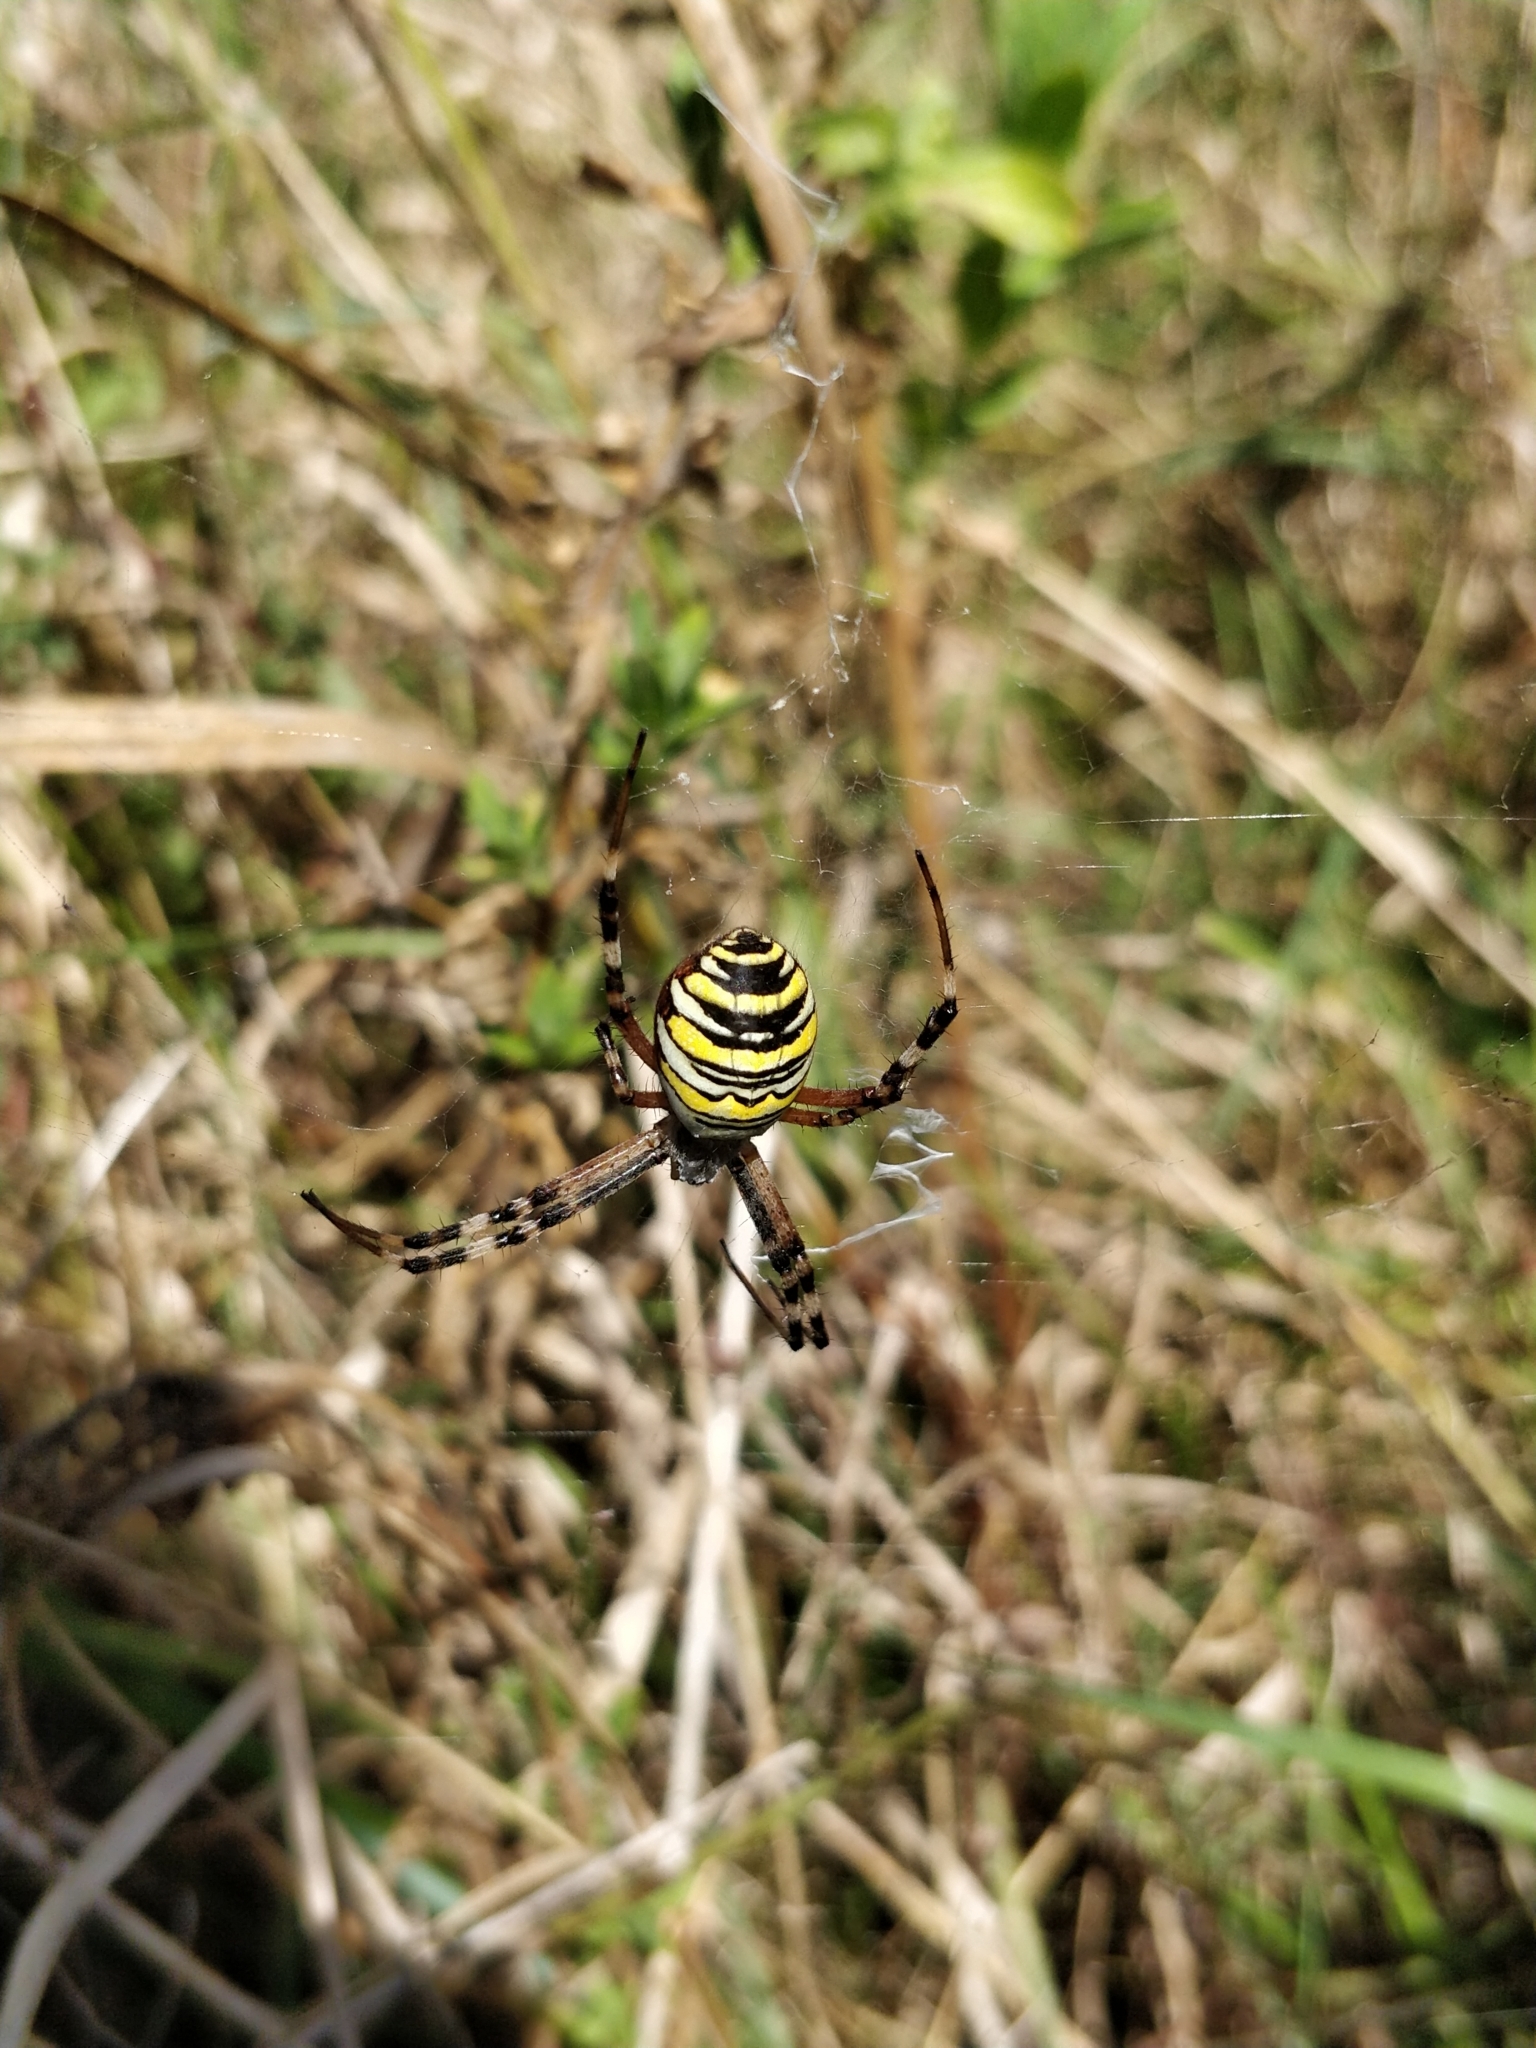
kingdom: Animalia
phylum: Arthropoda
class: Arachnida
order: Araneae
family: Araneidae
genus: Argiope
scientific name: Argiope bruennichi
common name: Wasp spider
